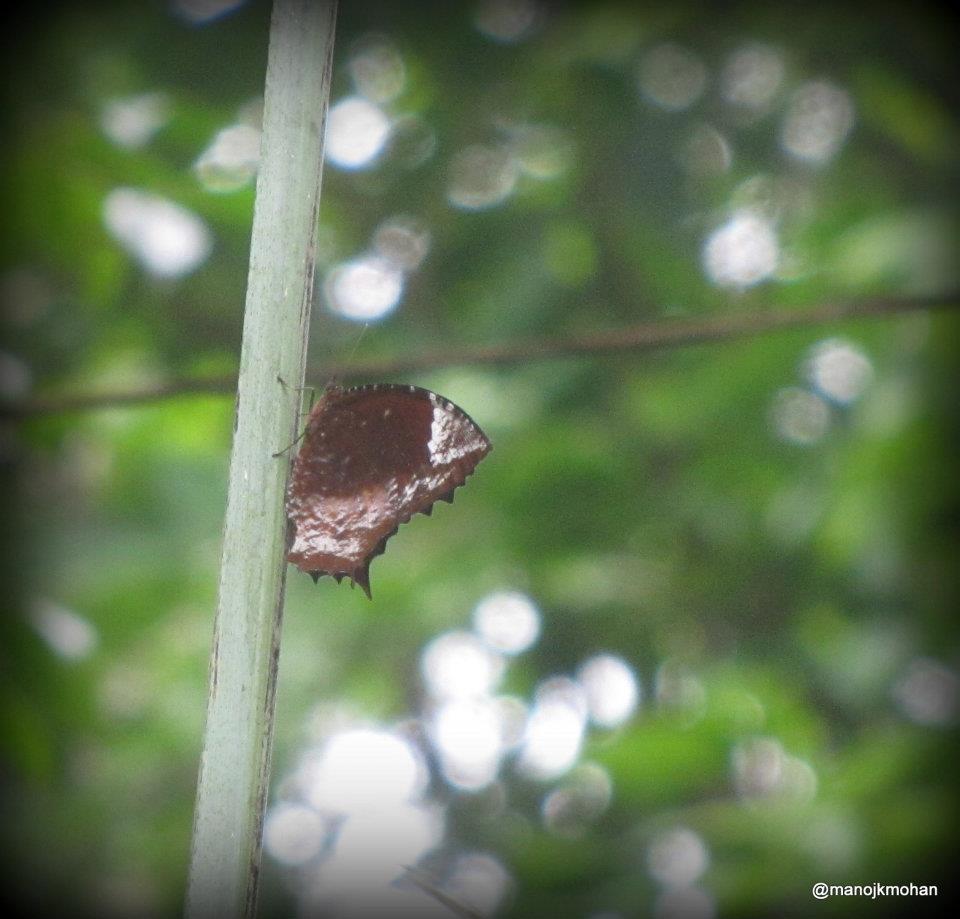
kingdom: Animalia
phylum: Arthropoda
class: Insecta
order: Lepidoptera
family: Nymphalidae
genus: Elymnias
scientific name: Elymnias caudata
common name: Tailed palmfly
